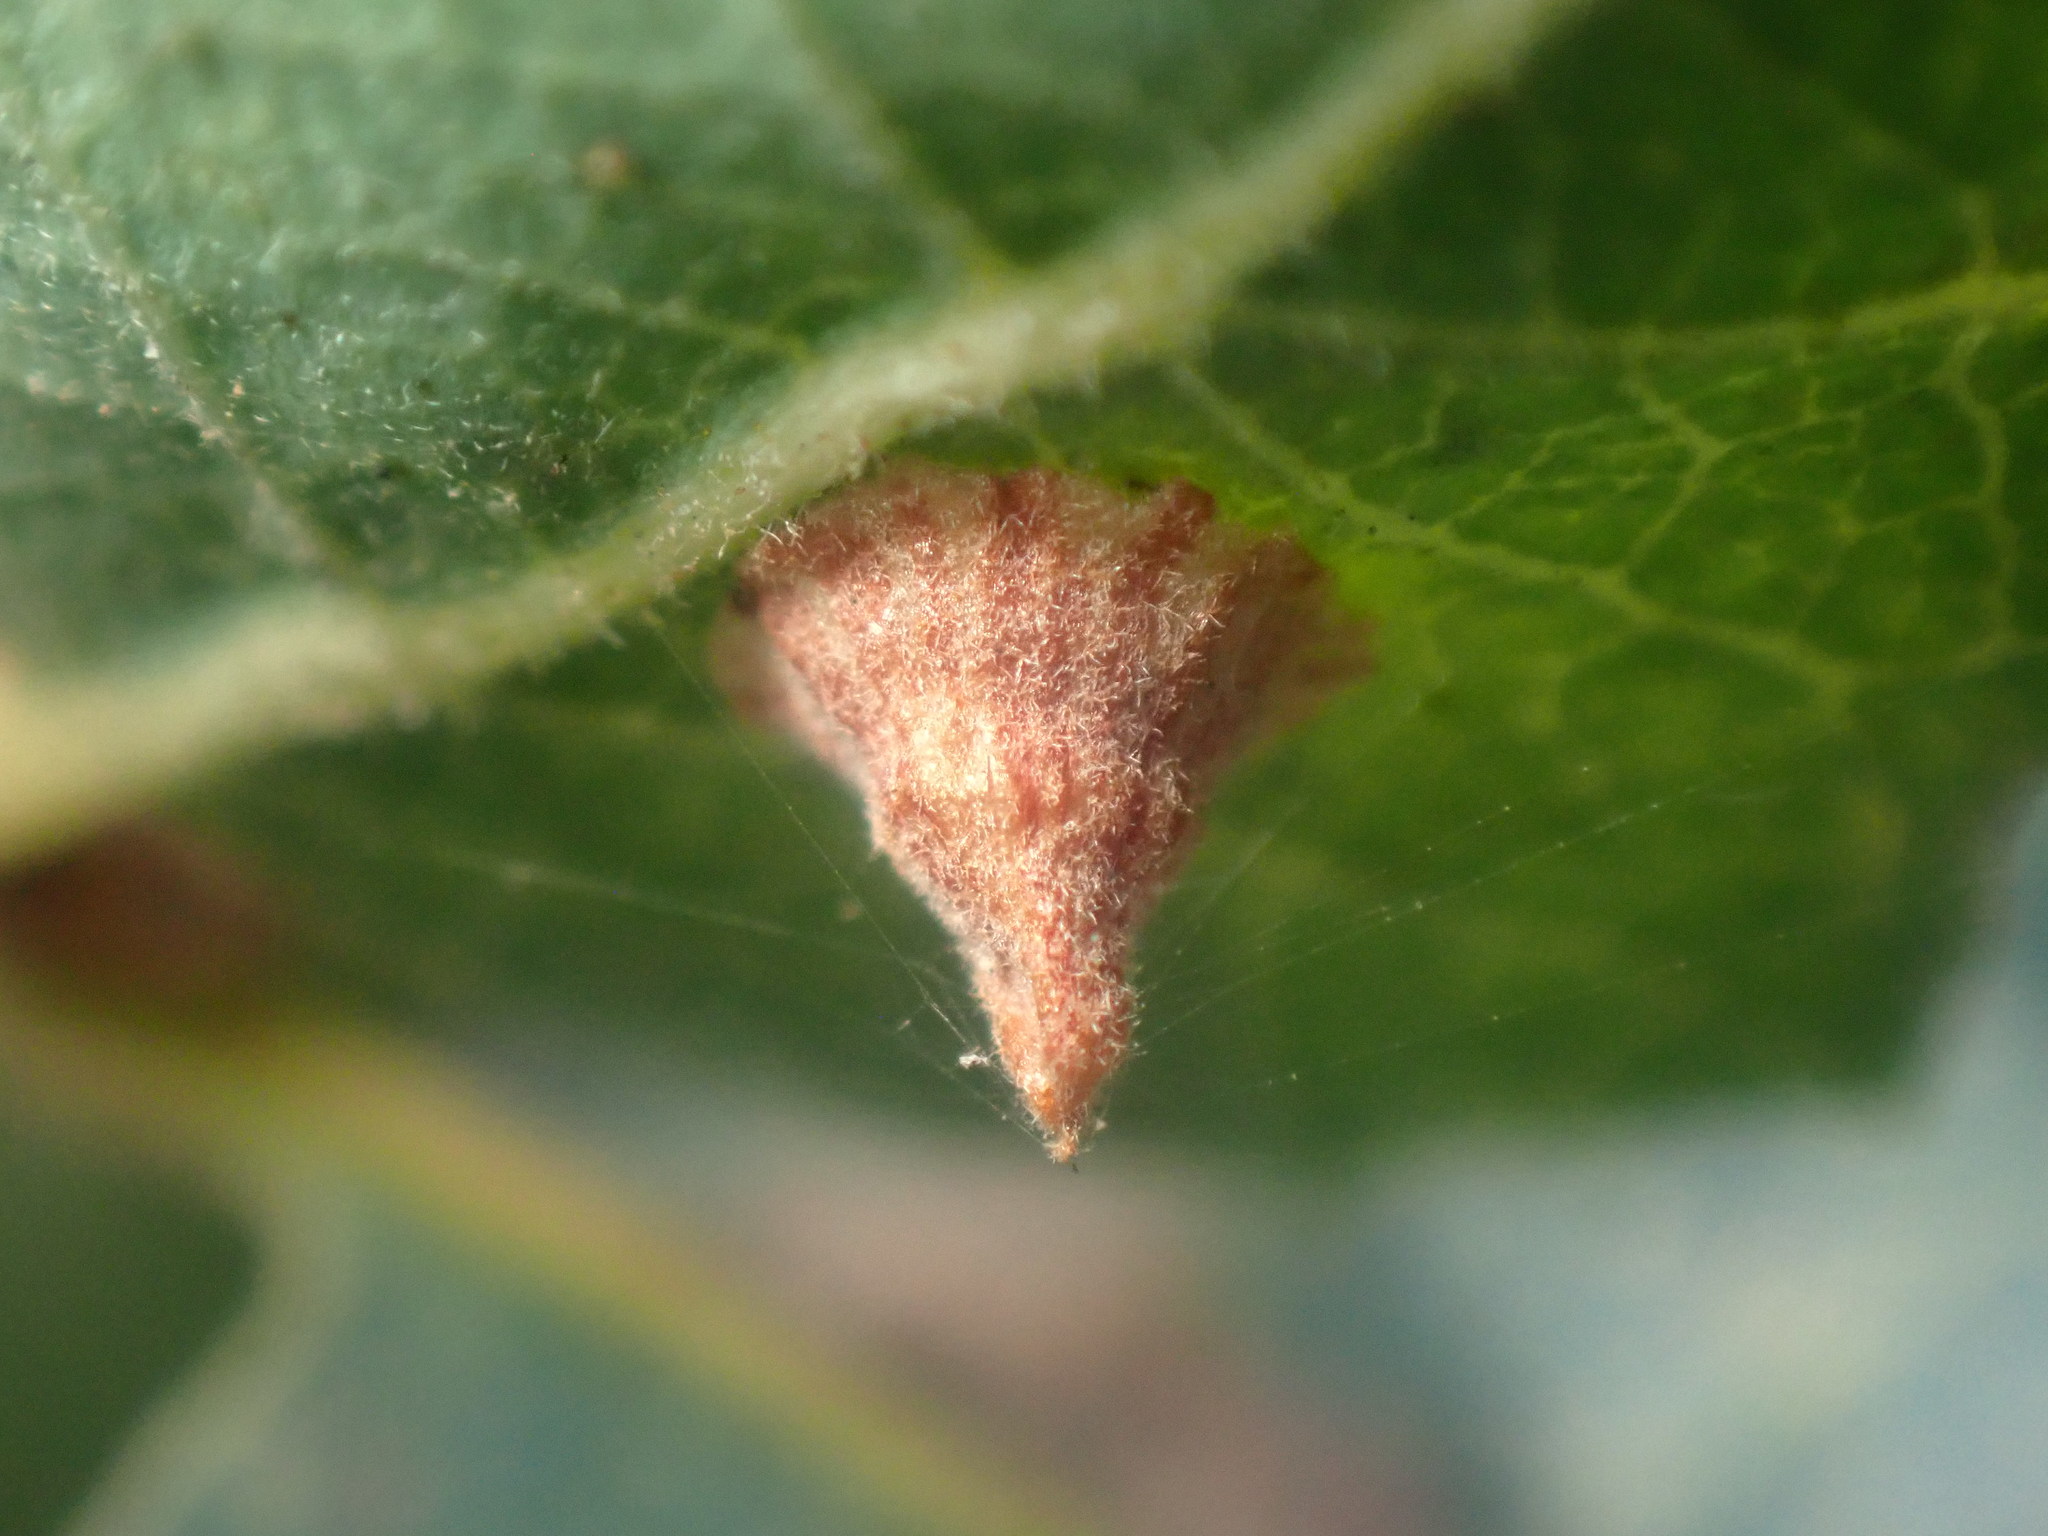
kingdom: Animalia
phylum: Arthropoda
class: Insecta
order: Hymenoptera
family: Cynipidae
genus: Andricus
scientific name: Andricus
